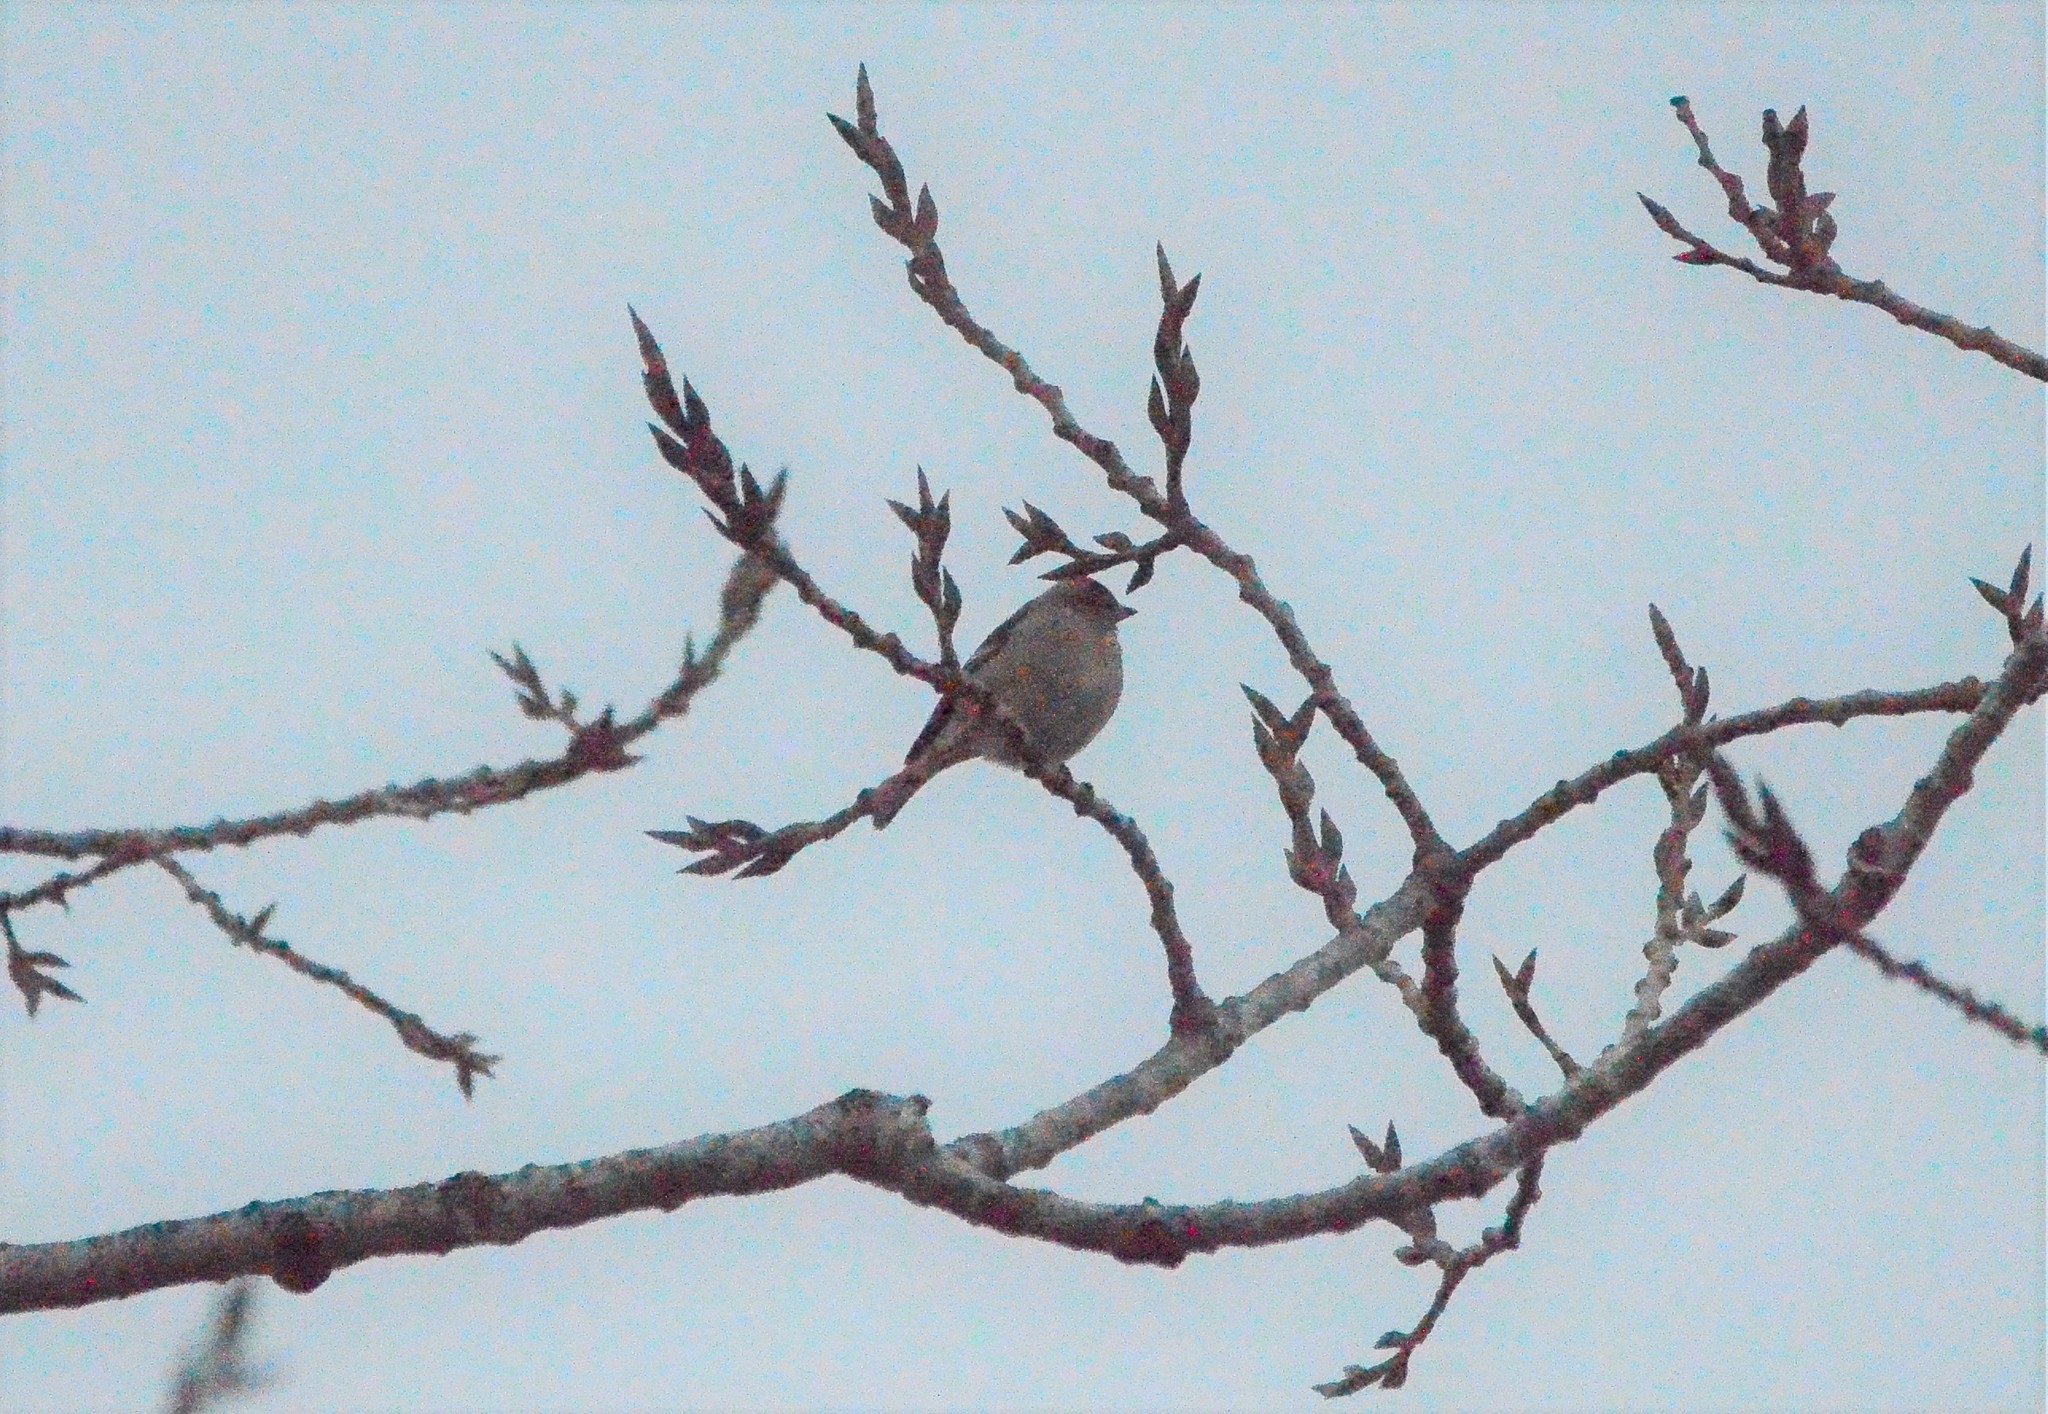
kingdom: Animalia
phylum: Chordata
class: Aves
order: Passeriformes
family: Fringillidae
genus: Fringilla
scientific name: Fringilla coelebs
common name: Common chaffinch
